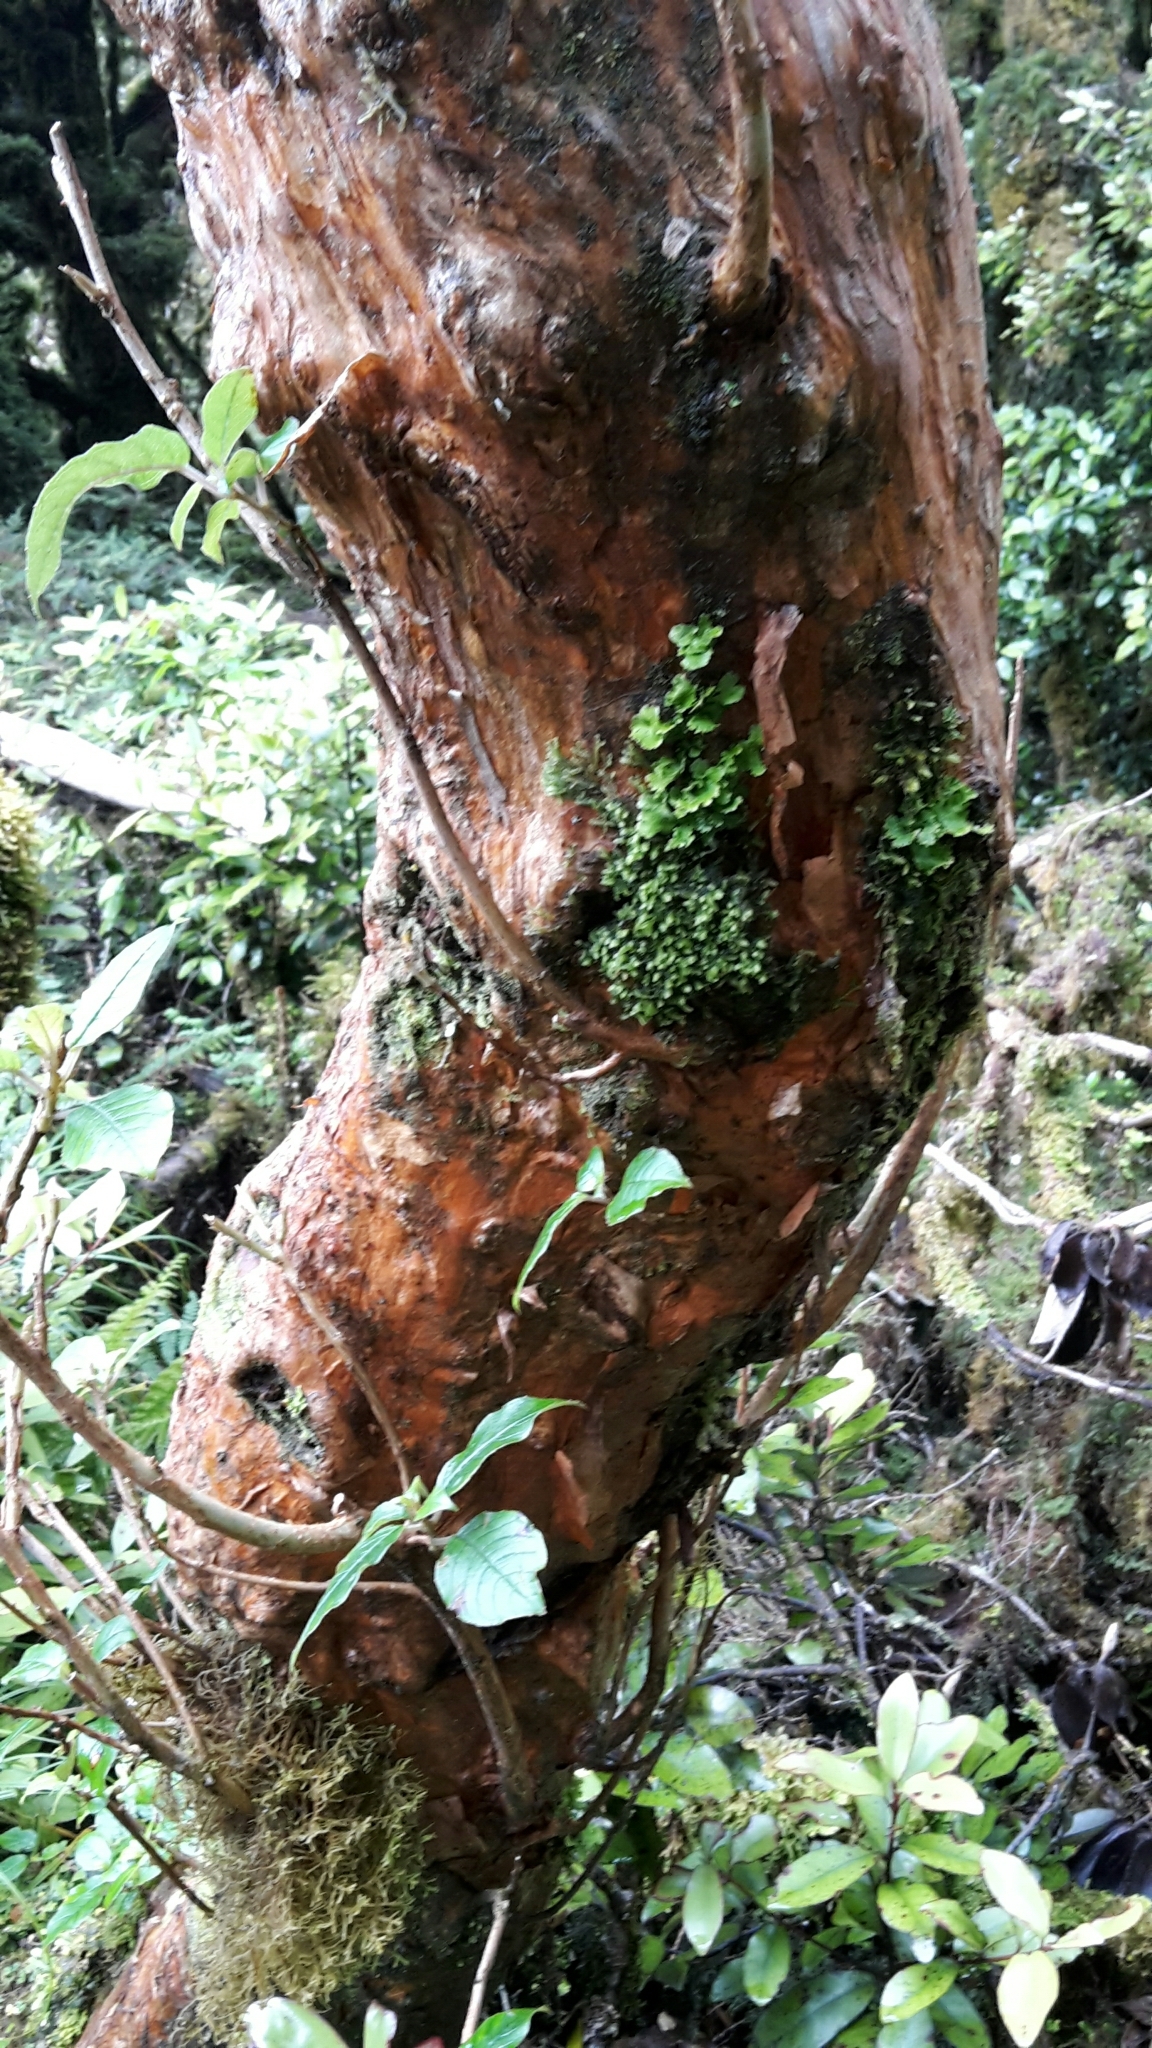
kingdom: Plantae
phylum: Tracheophyta
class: Magnoliopsida
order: Myrtales
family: Onagraceae
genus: Fuchsia
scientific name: Fuchsia excorticata
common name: Tree fuchsia
